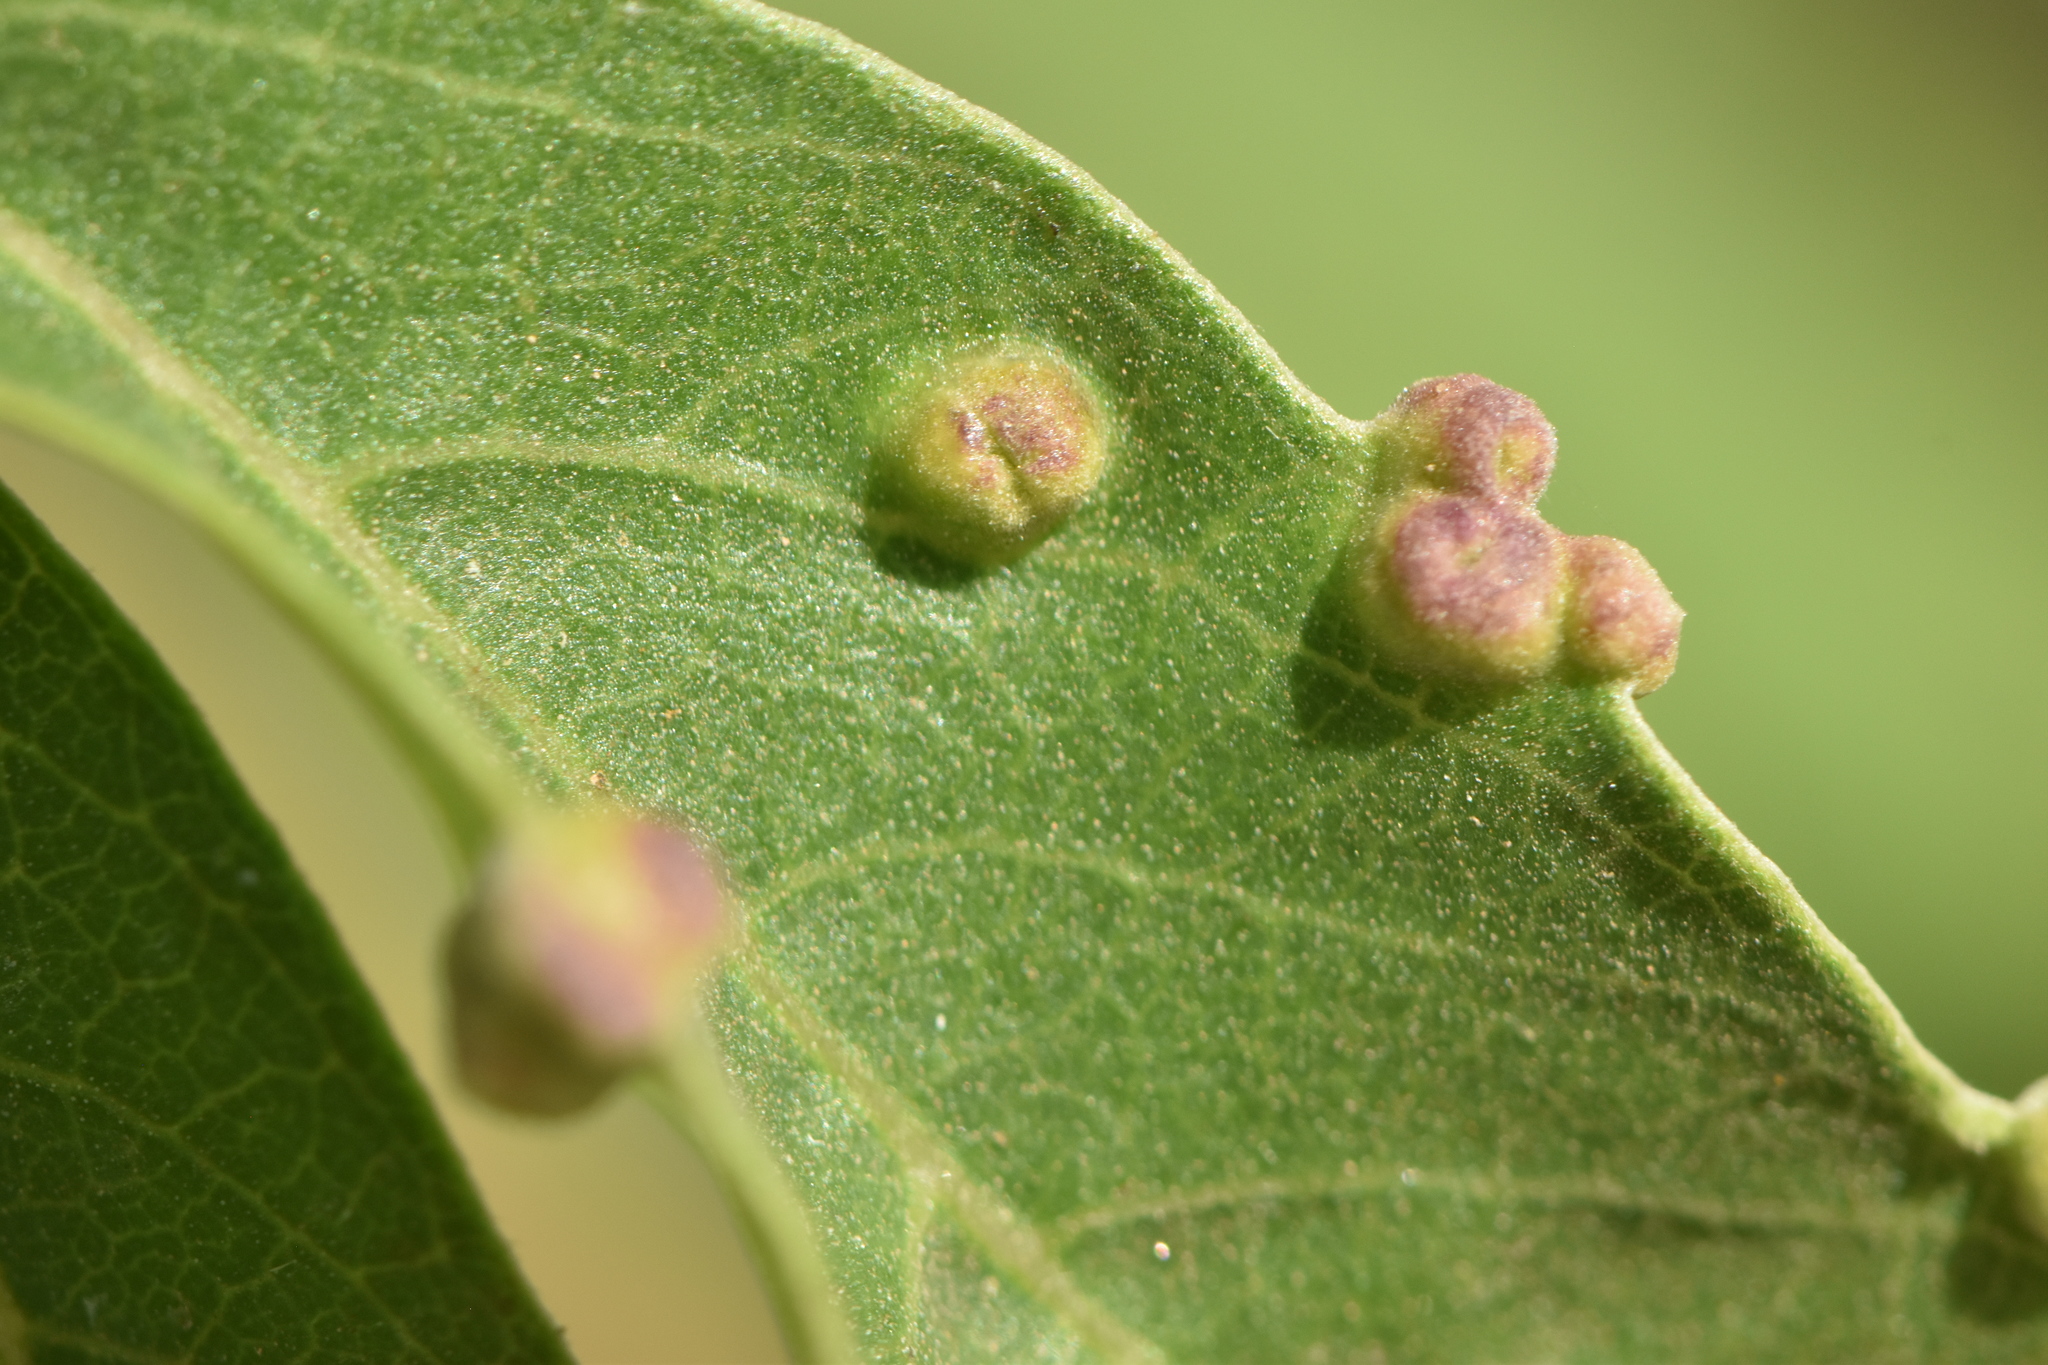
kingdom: Animalia
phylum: Arthropoda
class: Arachnida
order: Trombidiformes
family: Eriophyidae
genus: Aceria
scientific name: Aceria massalongoi
